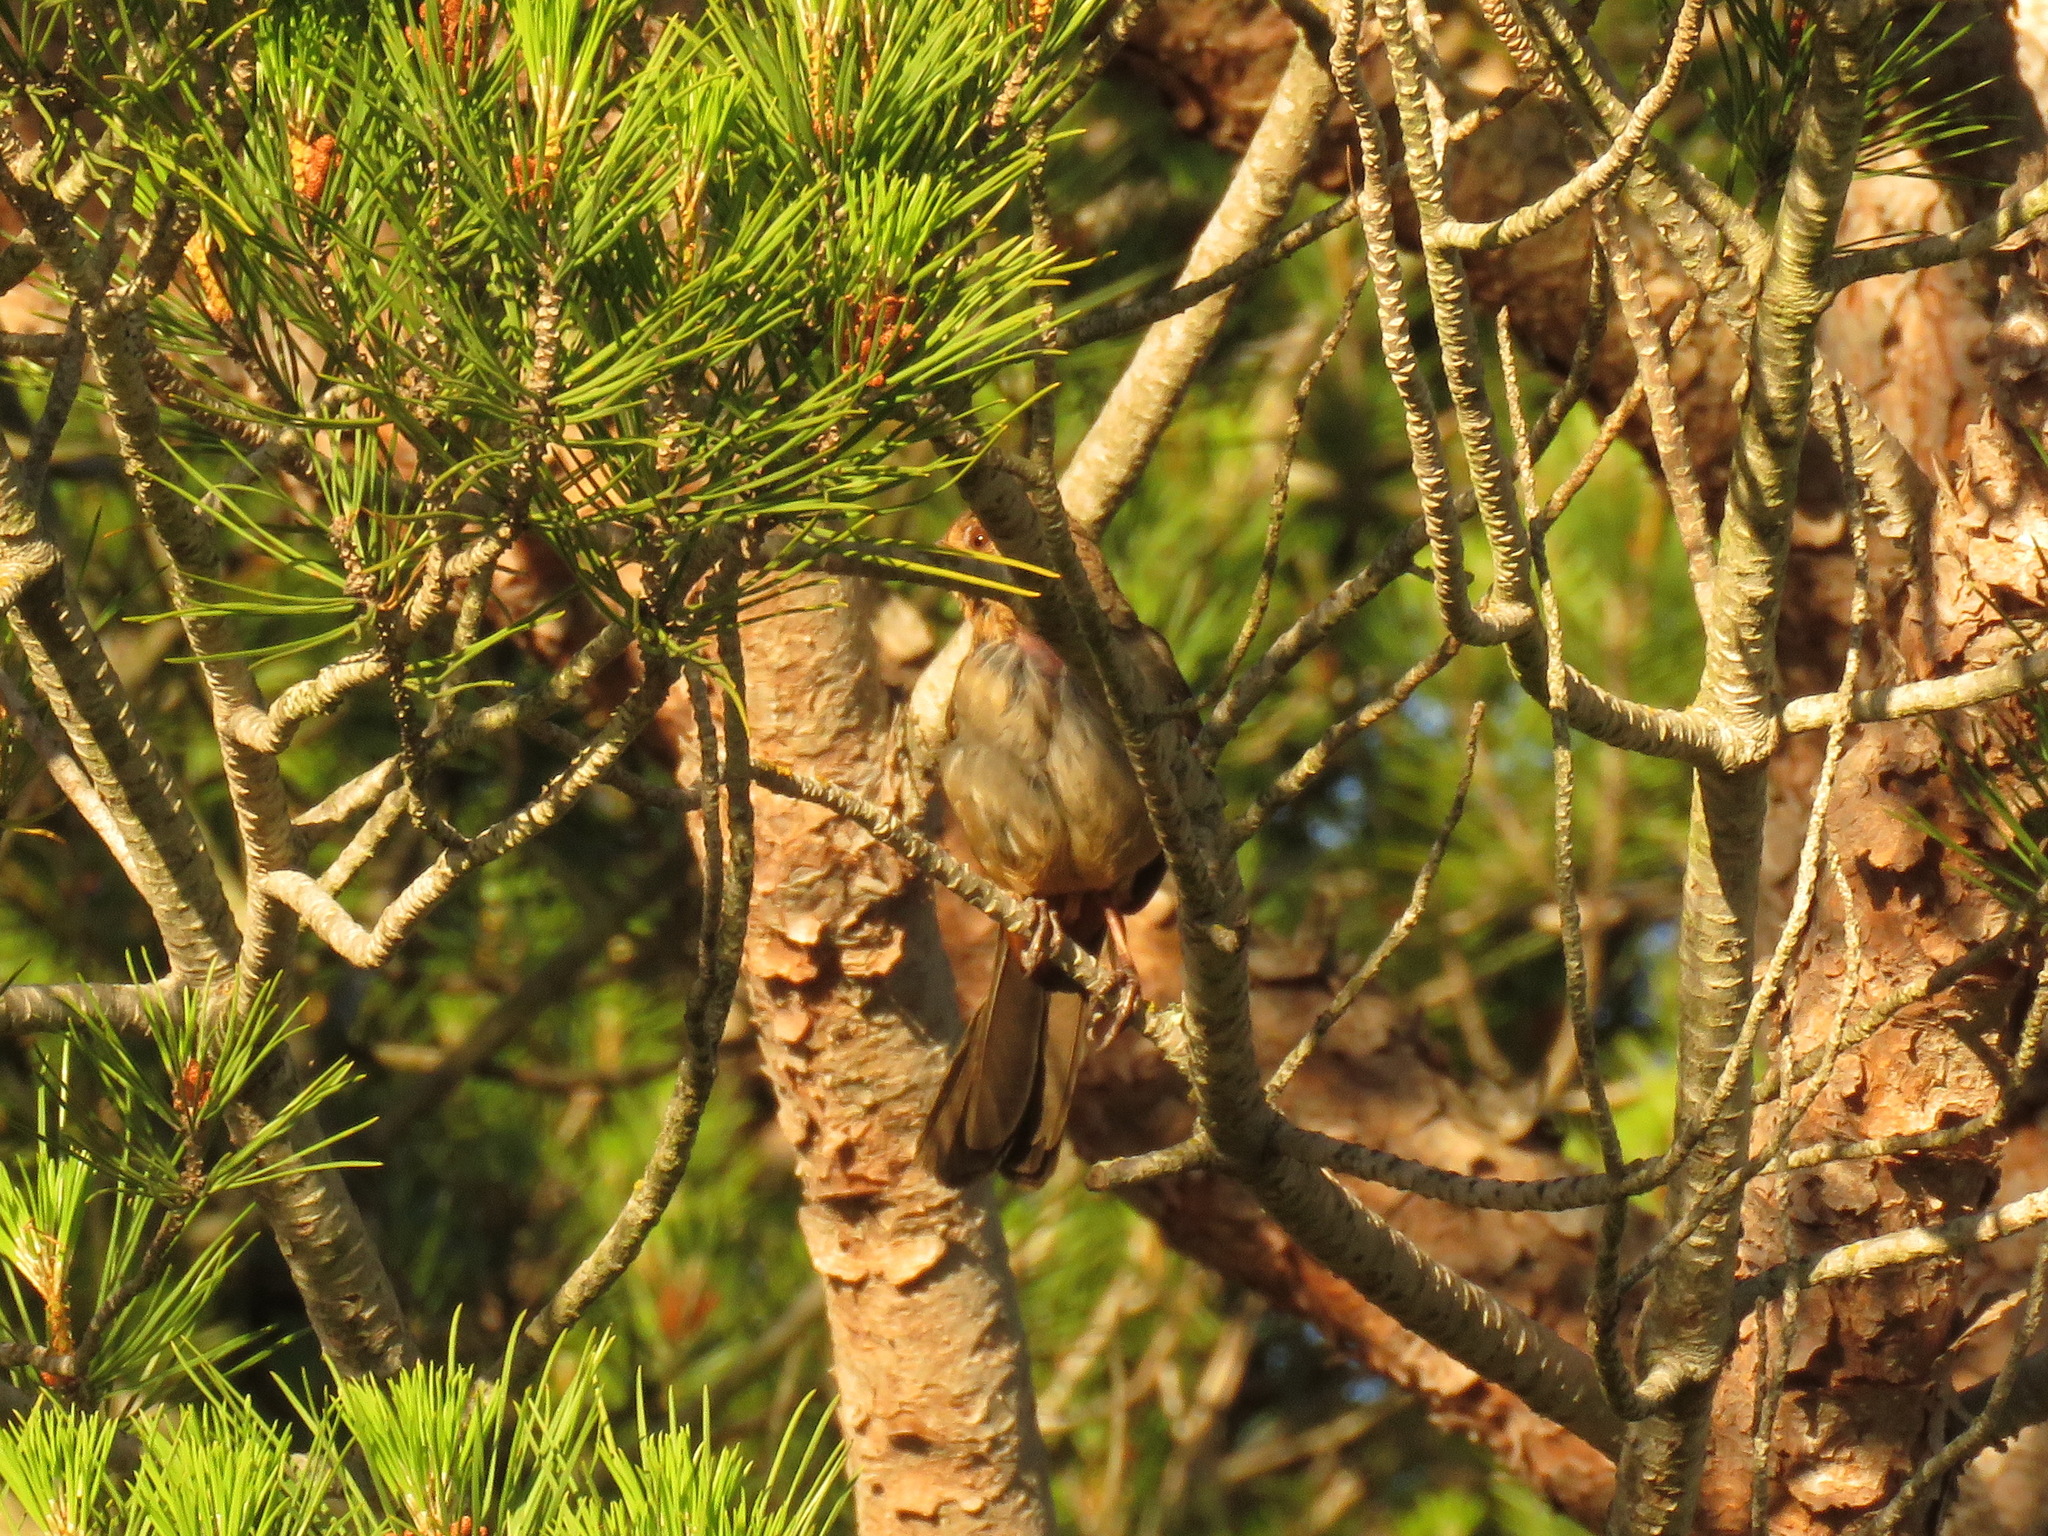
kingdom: Animalia
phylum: Chordata
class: Aves
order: Passeriformes
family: Passerellidae
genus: Melozone
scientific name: Melozone crissalis
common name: California towhee
